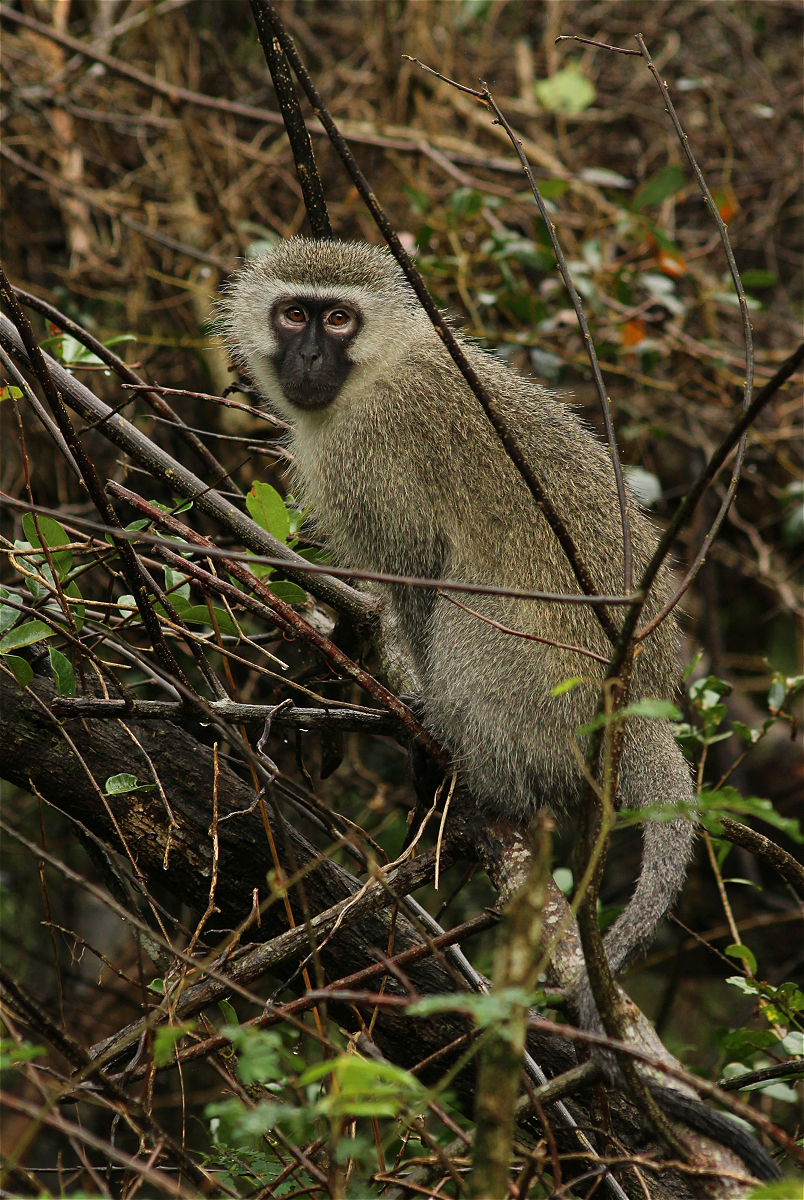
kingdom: Animalia
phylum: Chordata
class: Mammalia
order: Primates
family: Cercopithecidae
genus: Chlorocebus
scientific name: Chlorocebus pygerythrus
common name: Vervet monkey
